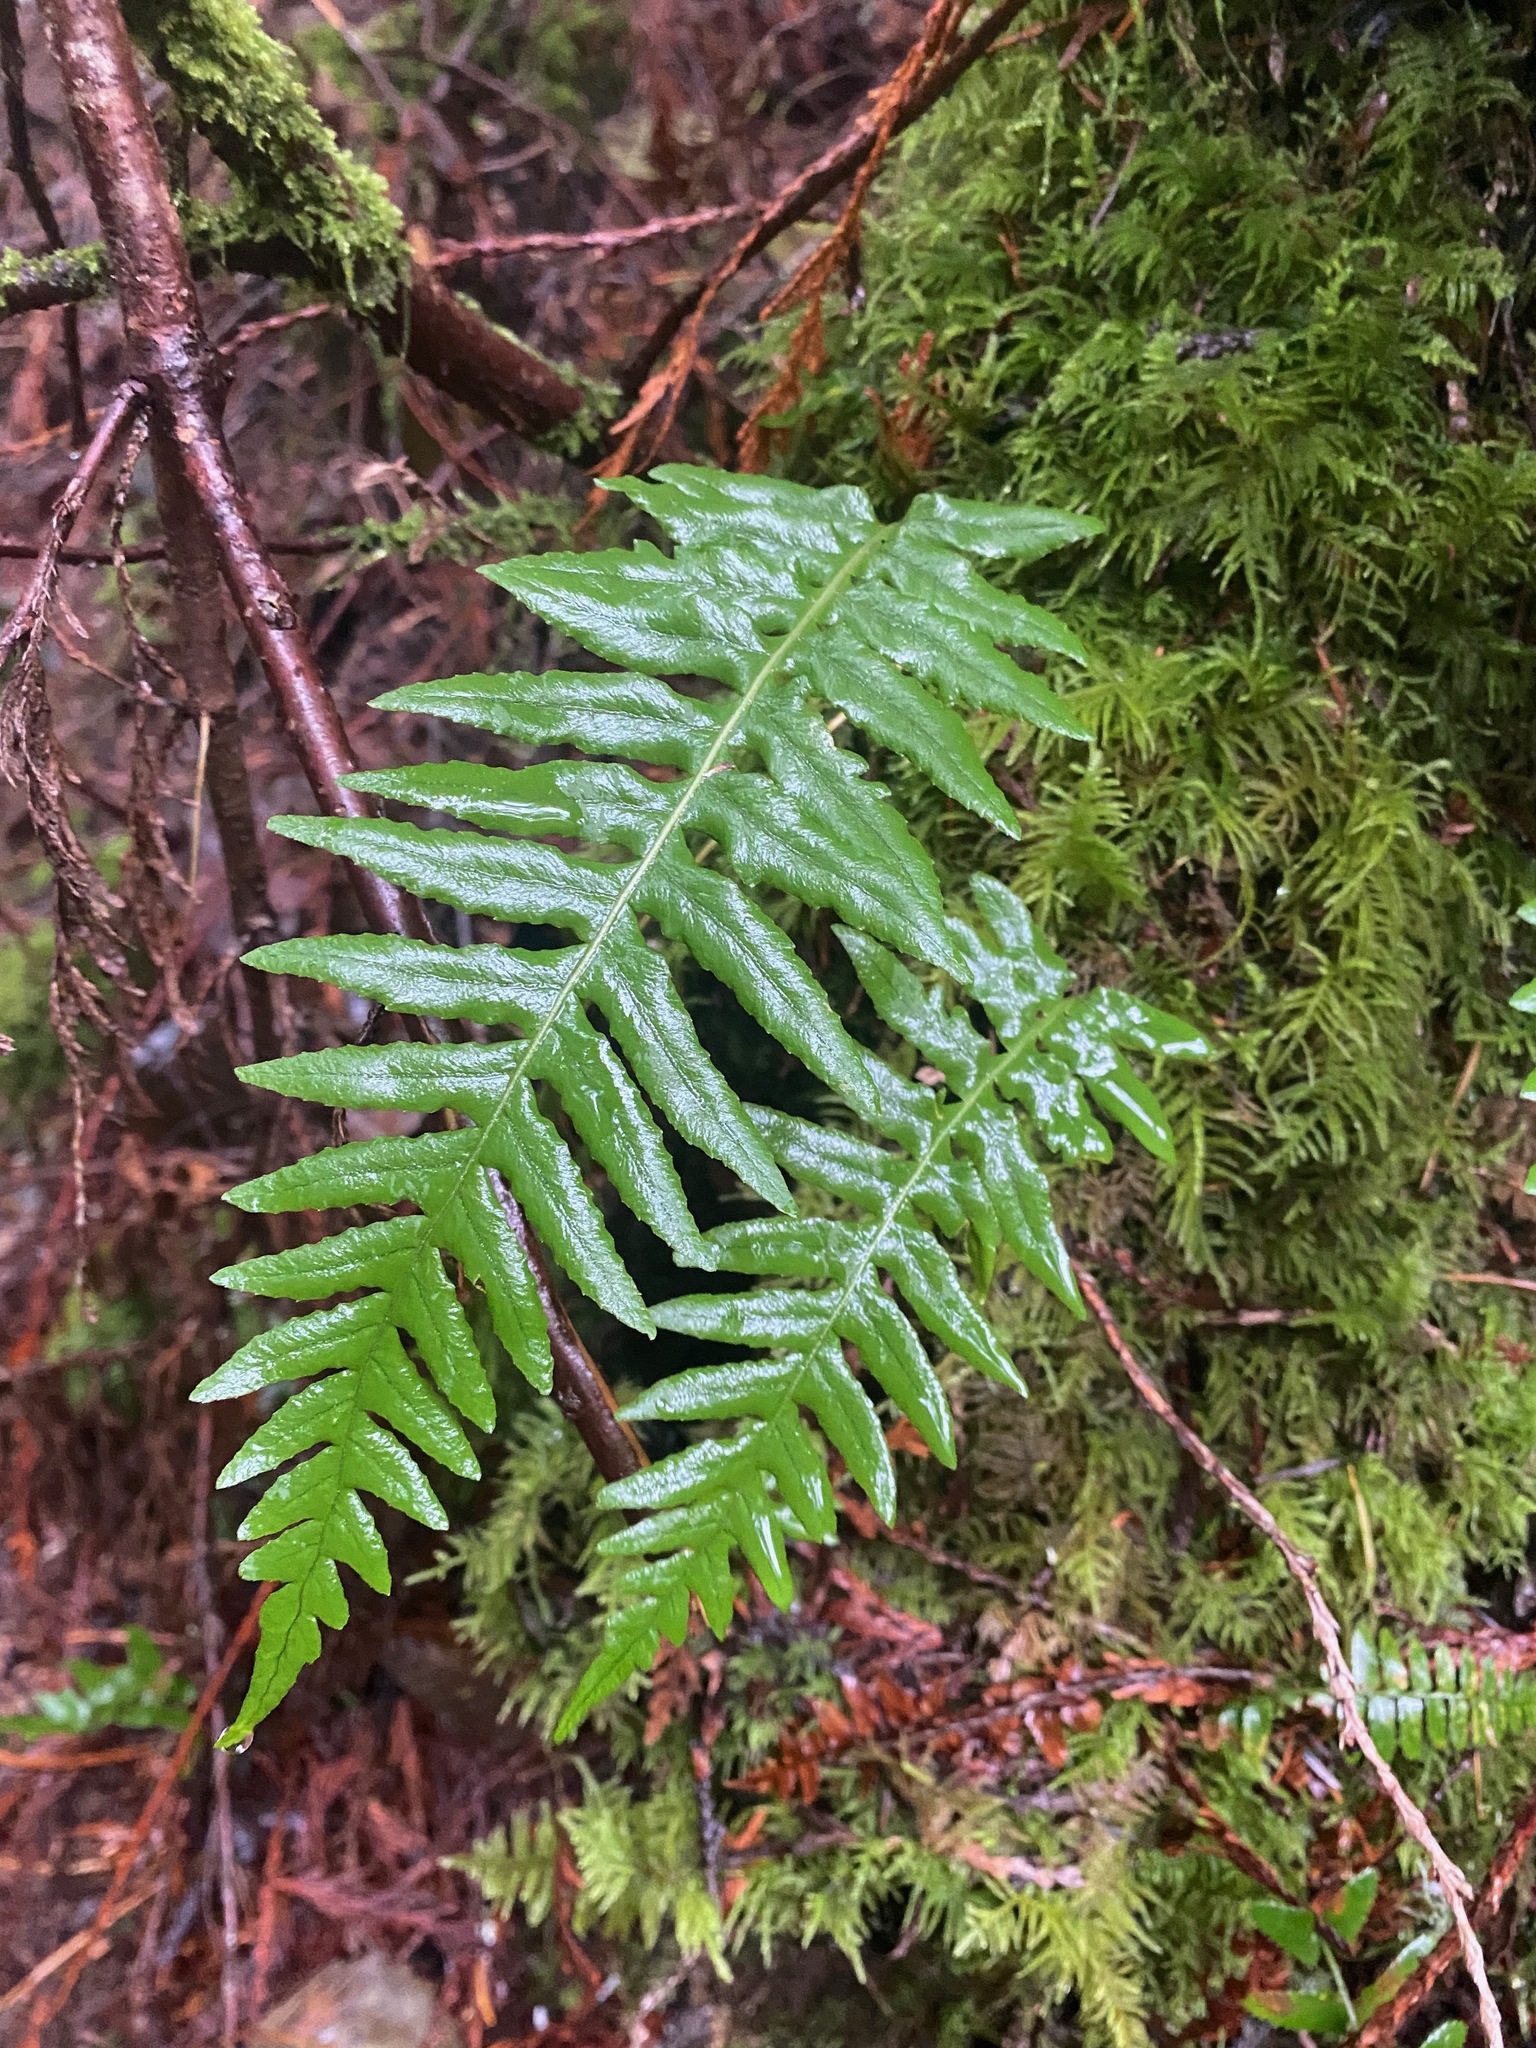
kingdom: Plantae
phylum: Tracheophyta
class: Polypodiopsida
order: Polypodiales
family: Polypodiaceae
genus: Polypodium
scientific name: Polypodium glycyrrhiza
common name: Licorice fern
